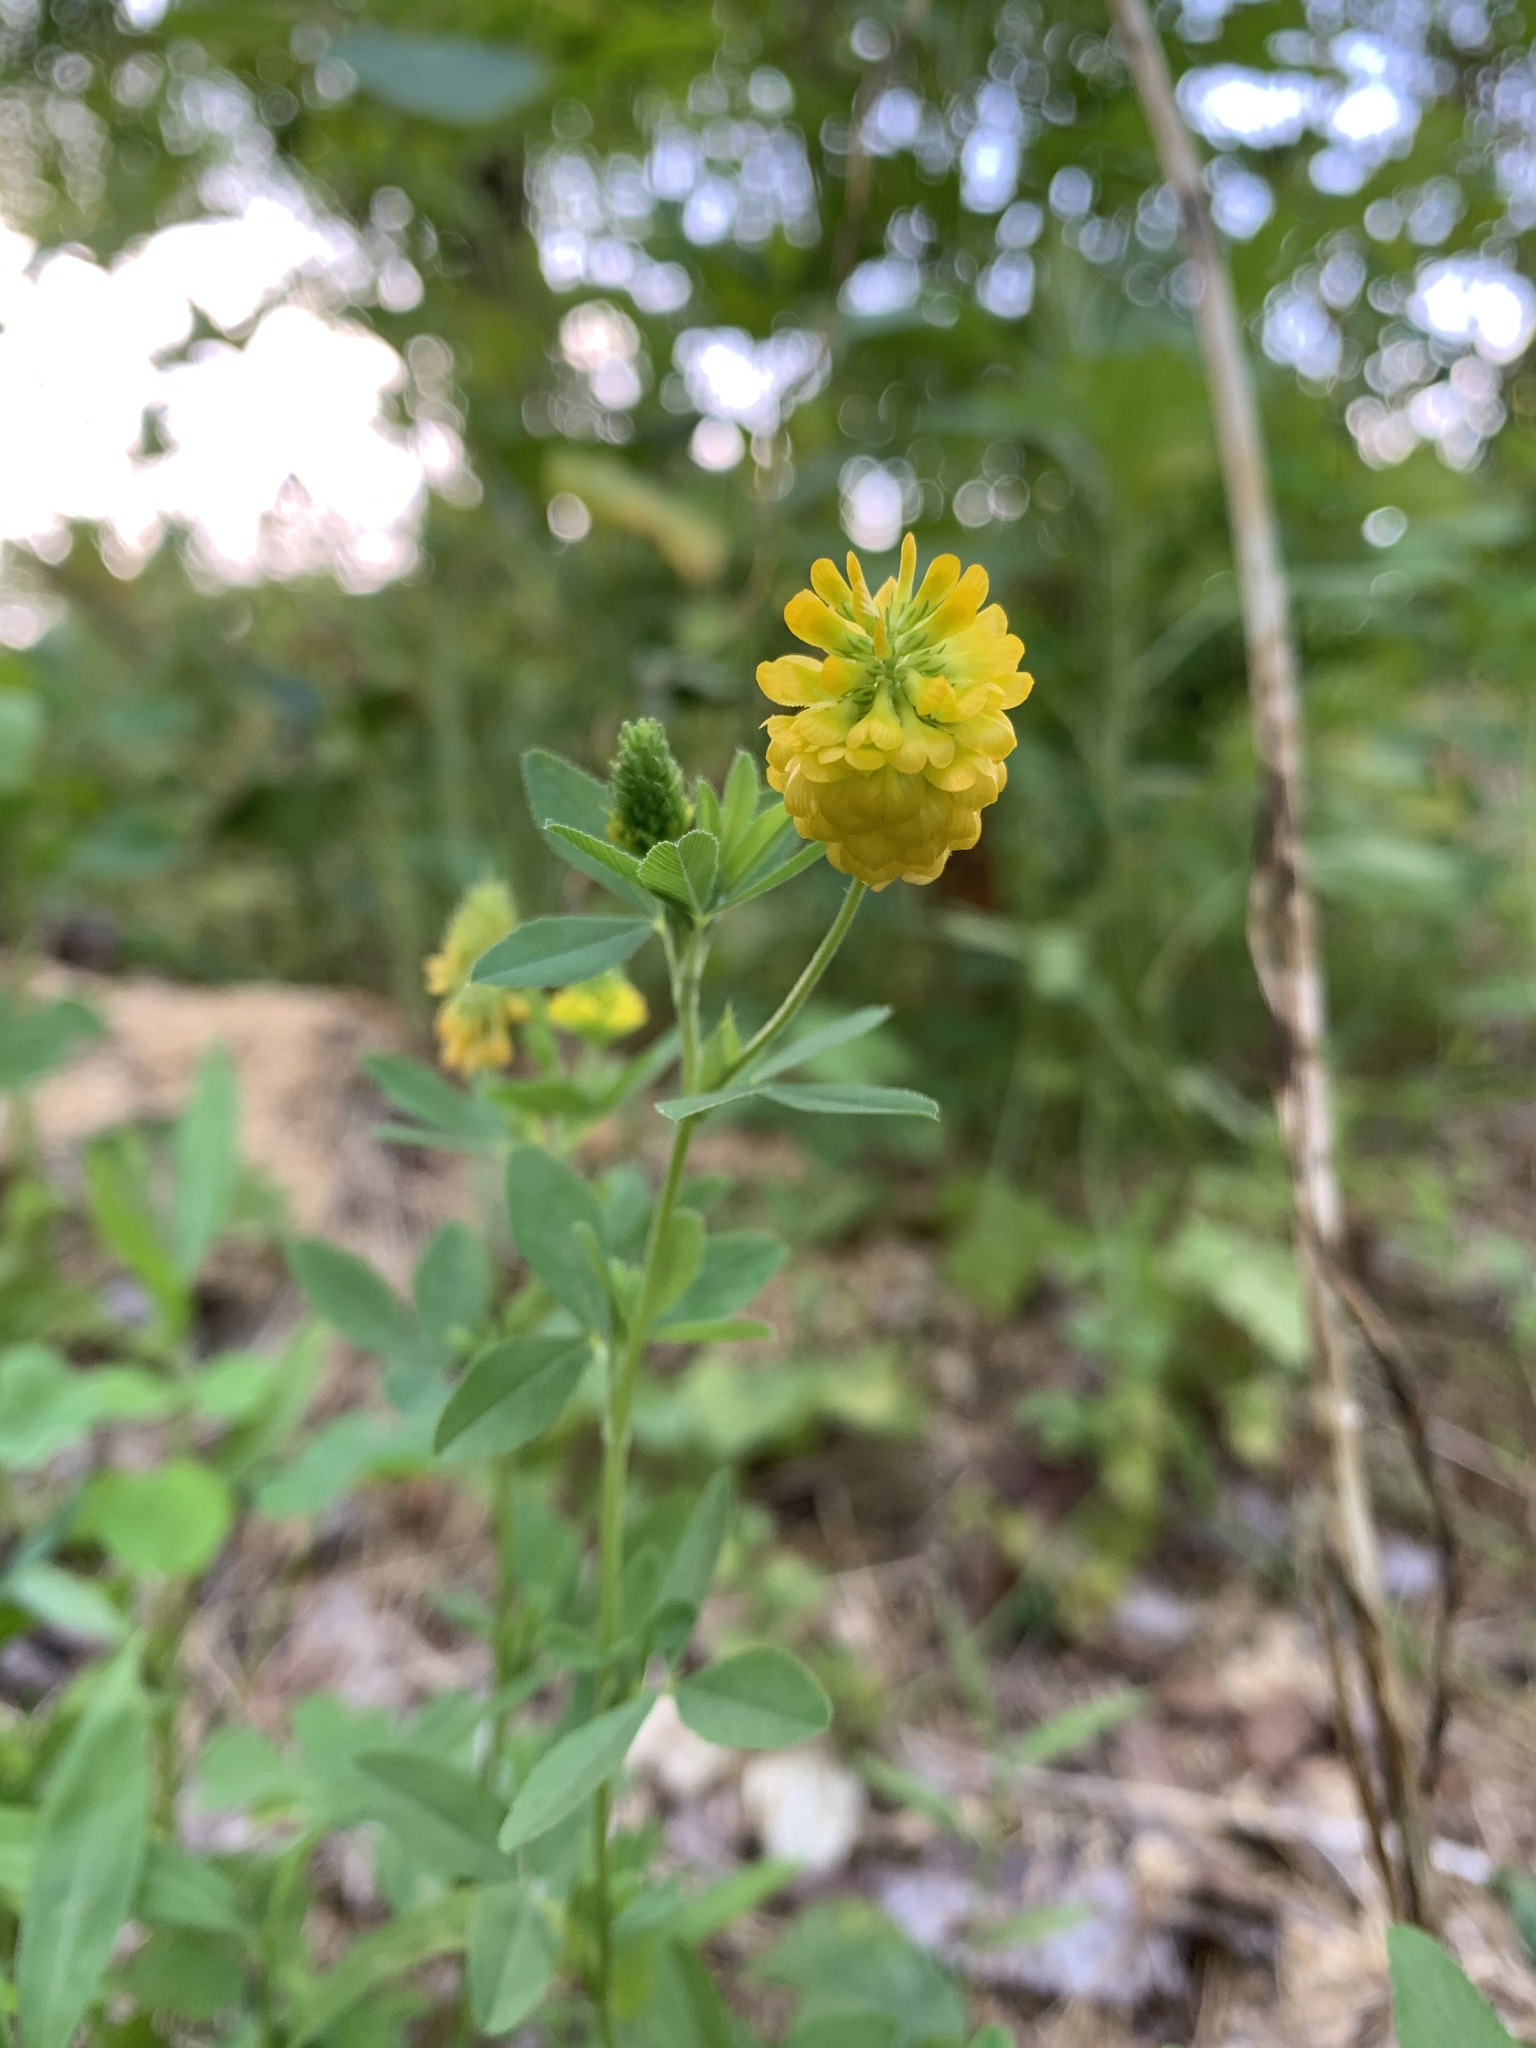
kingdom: Plantae
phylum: Tracheophyta
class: Magnoliopsida
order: Fabales
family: Fabaceae
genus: Trifolium
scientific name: Trifolium aureum
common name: Golden clover
